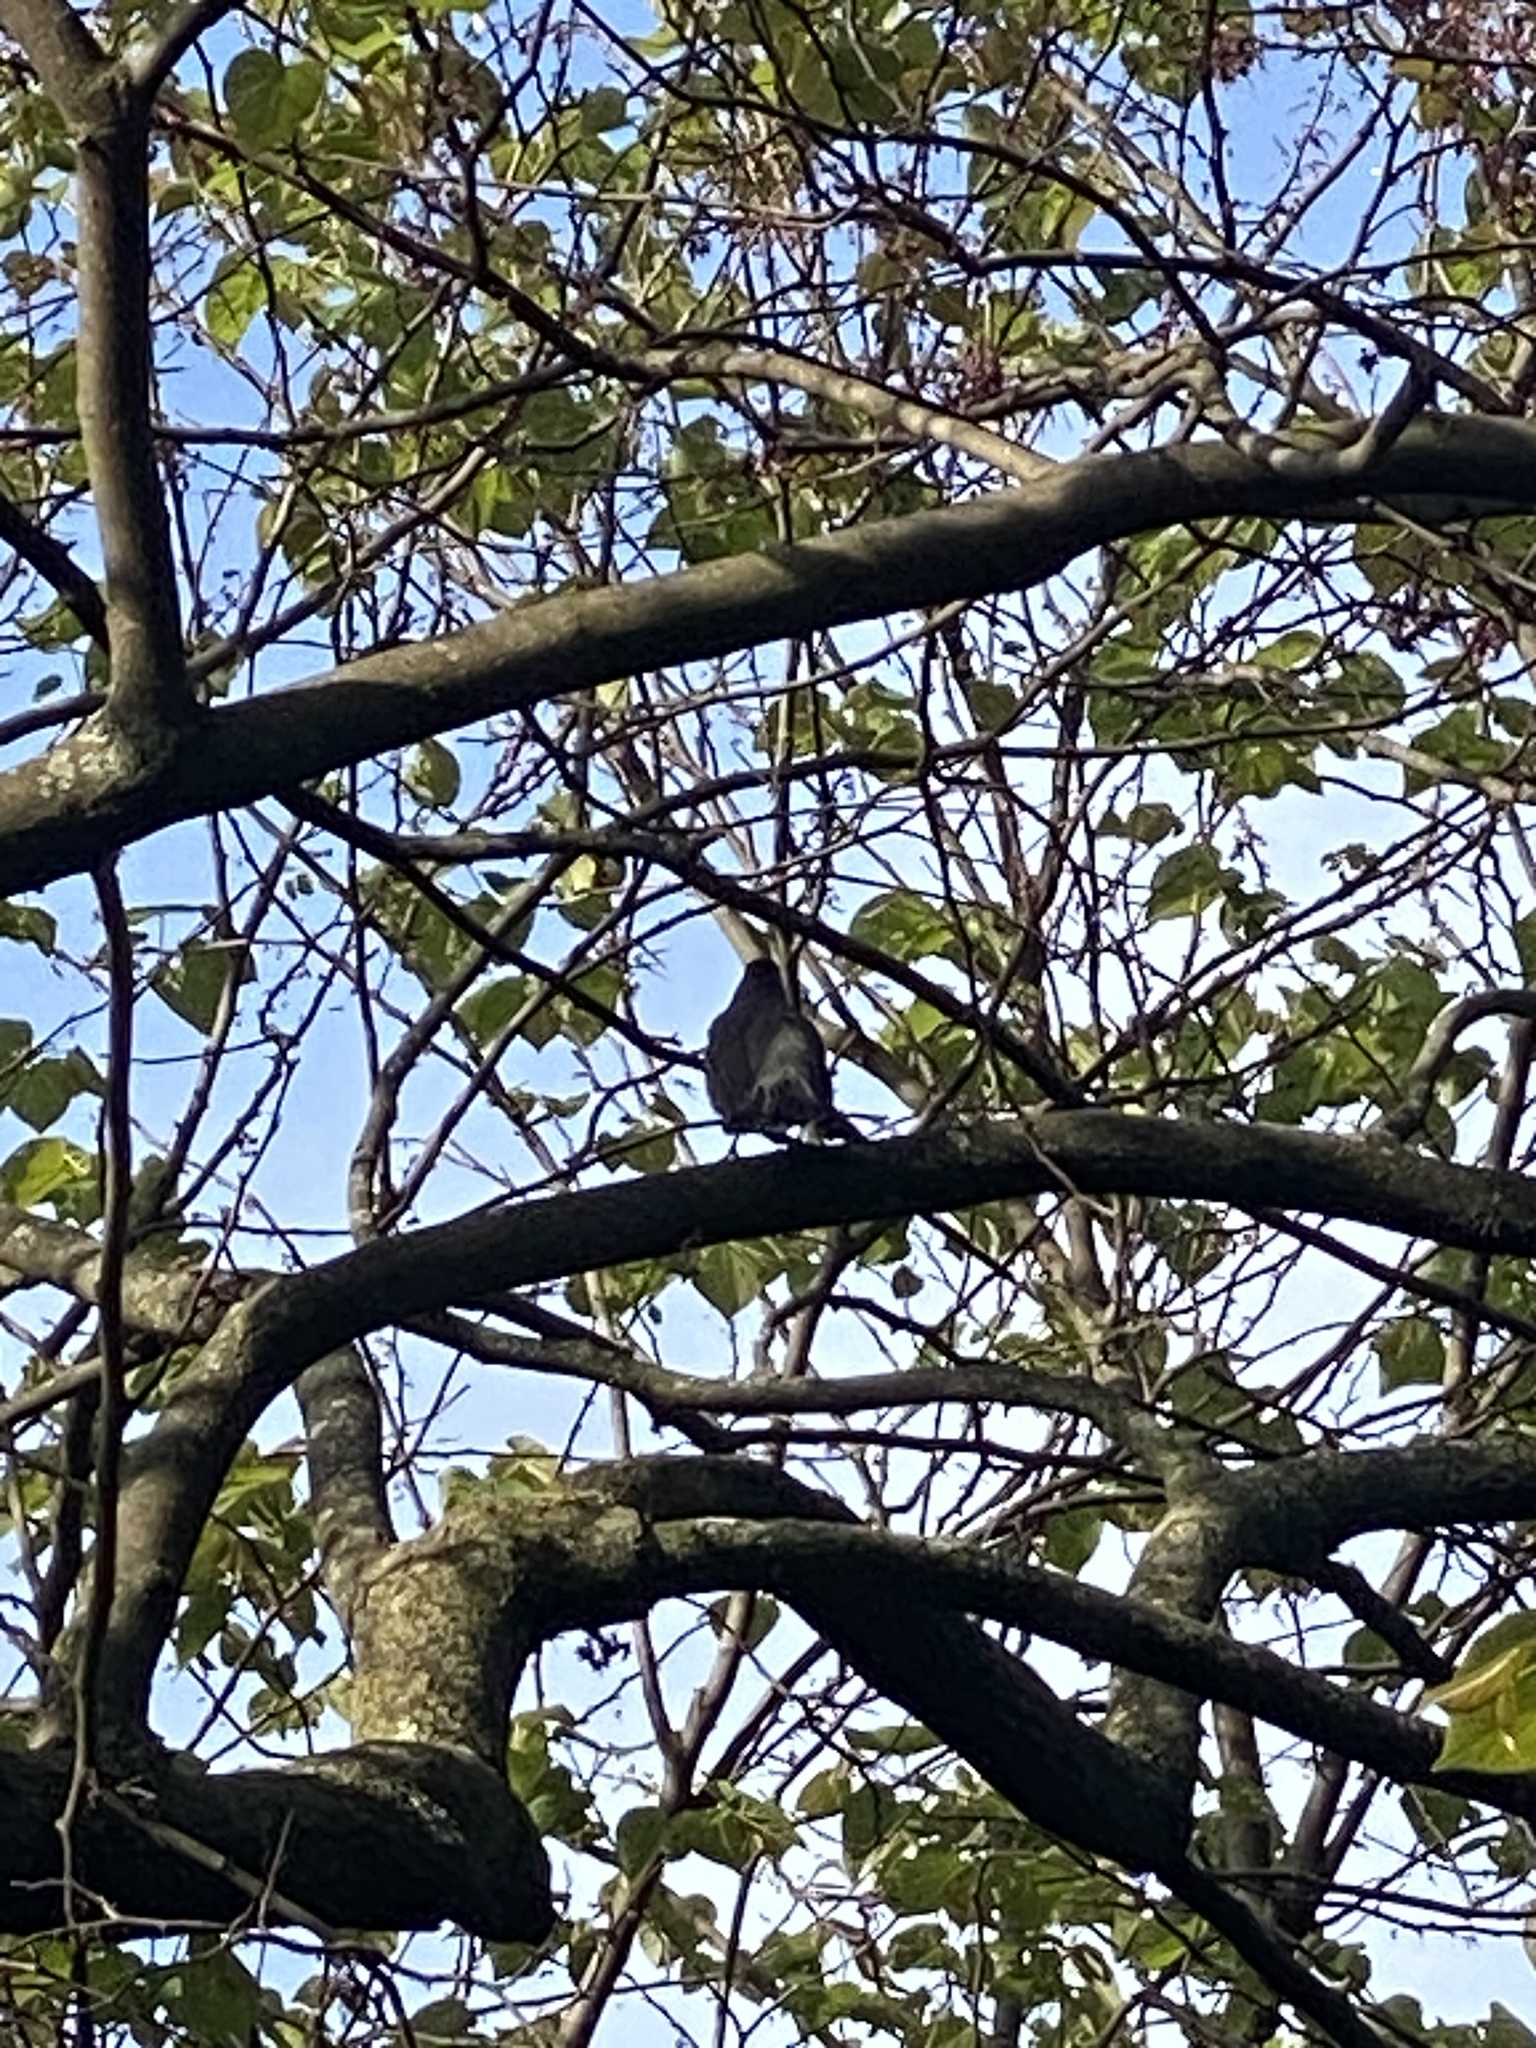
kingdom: Animalia
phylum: Chordata
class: Aves
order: Passeriformes
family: Mimidae
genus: Dumetella
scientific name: Dumetella carolinensis
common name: Gray catbird
